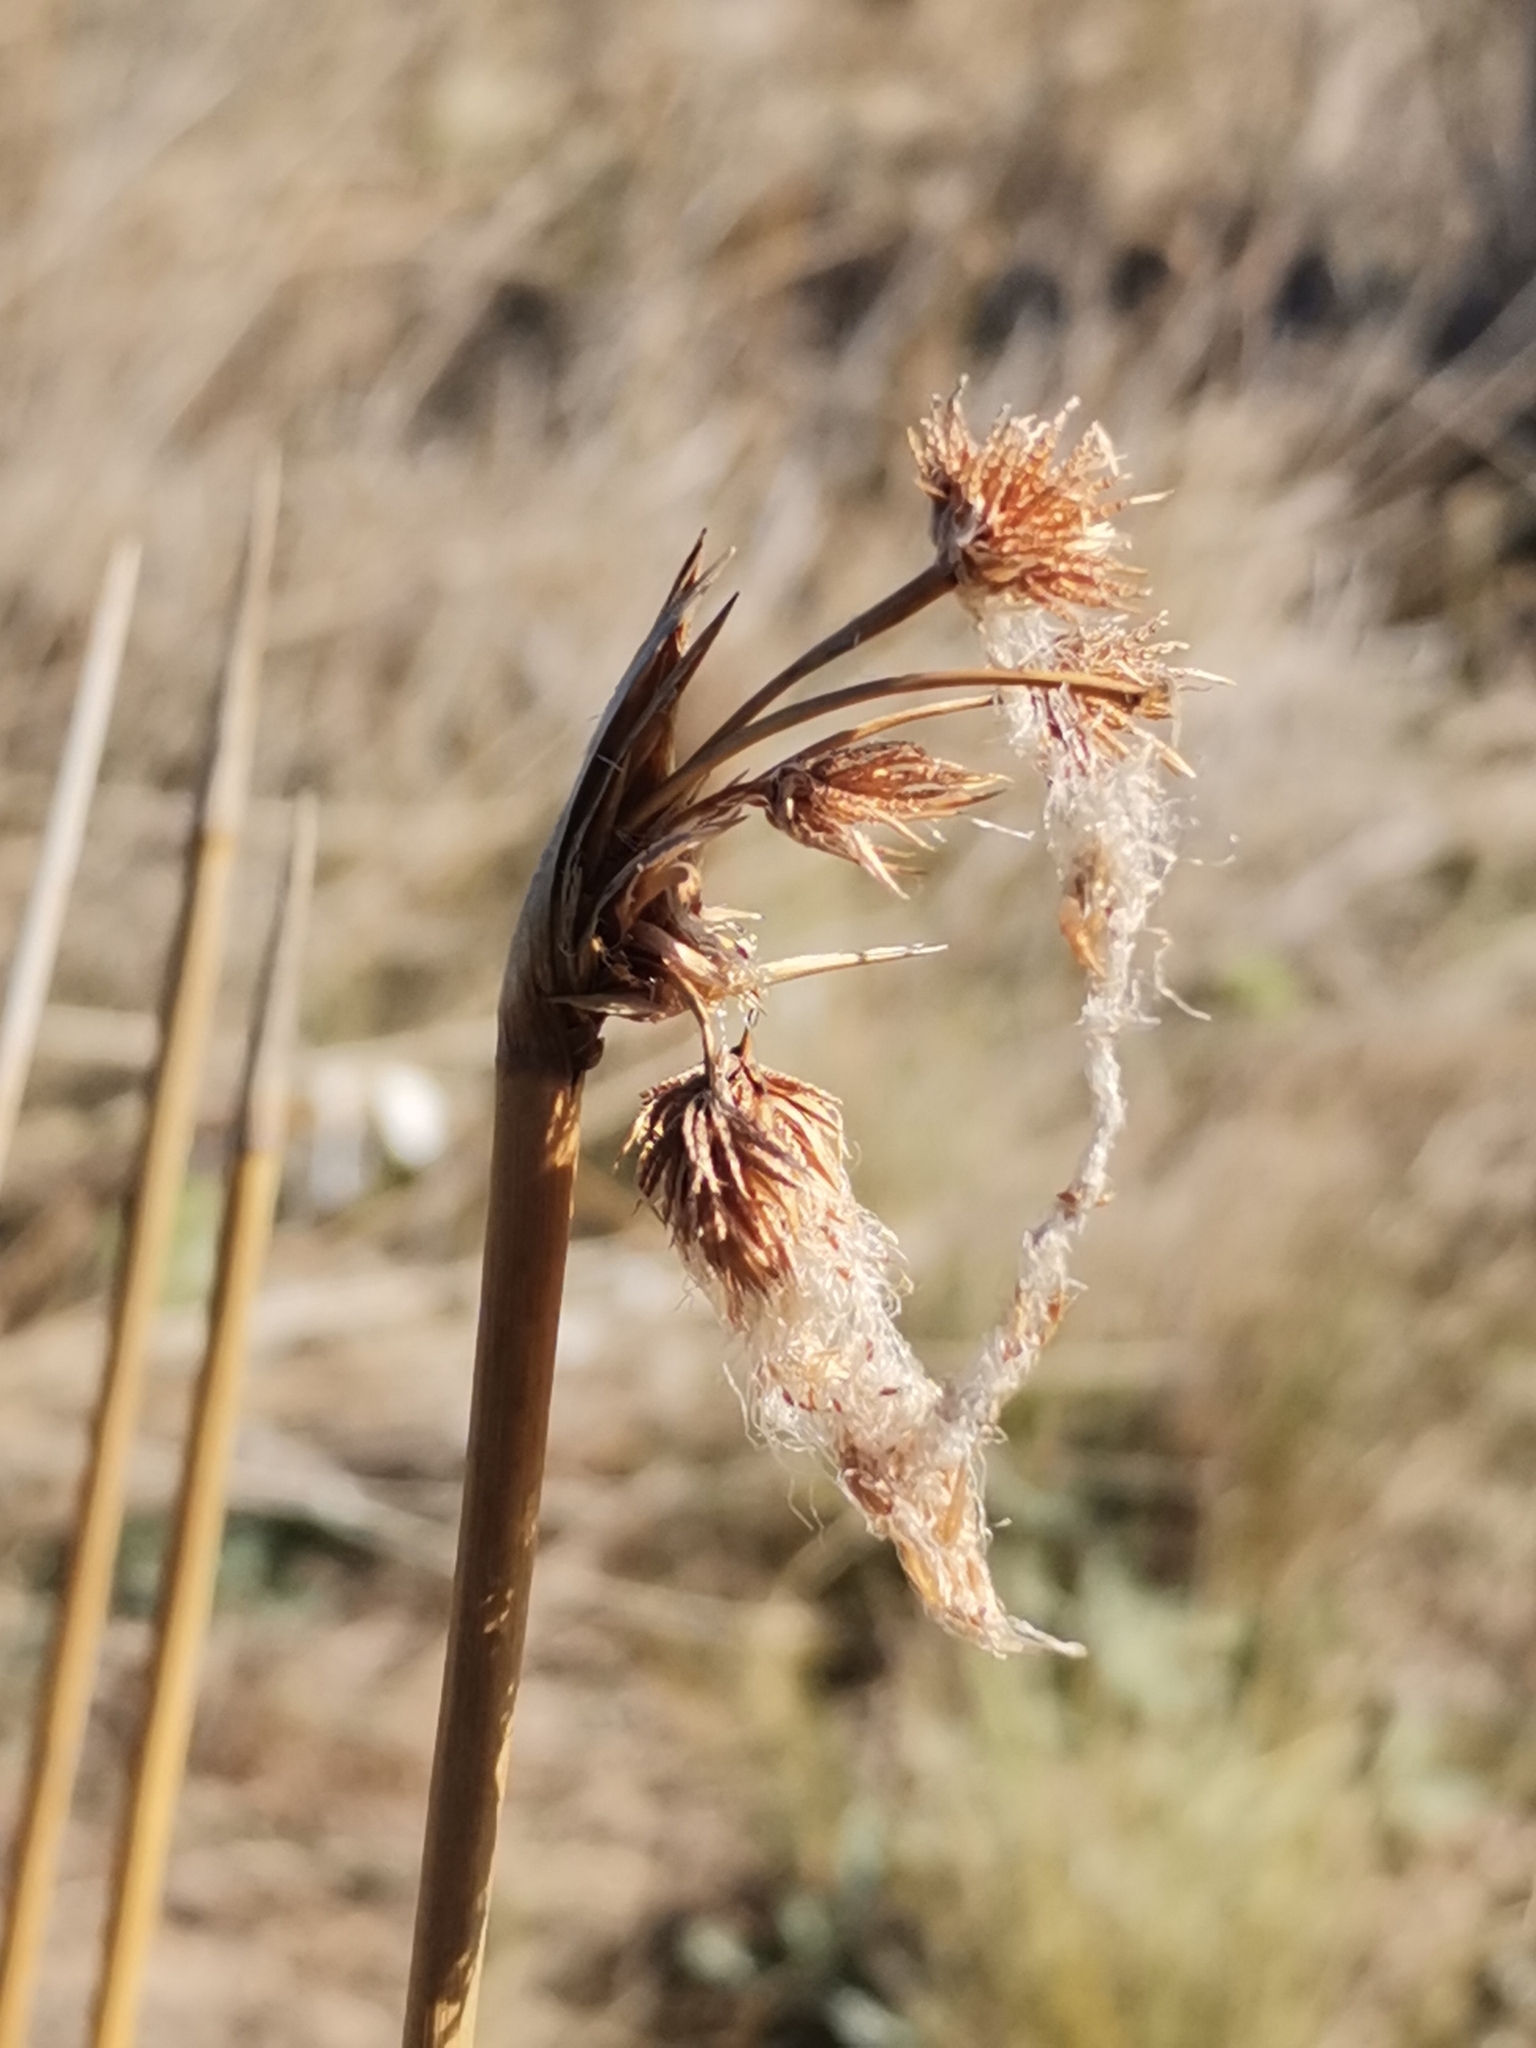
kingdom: Plantae
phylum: Tracheophyta
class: Liliopsida
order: Poales
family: Cyperaceae
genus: Cyperus
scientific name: Cyperus trigynus
